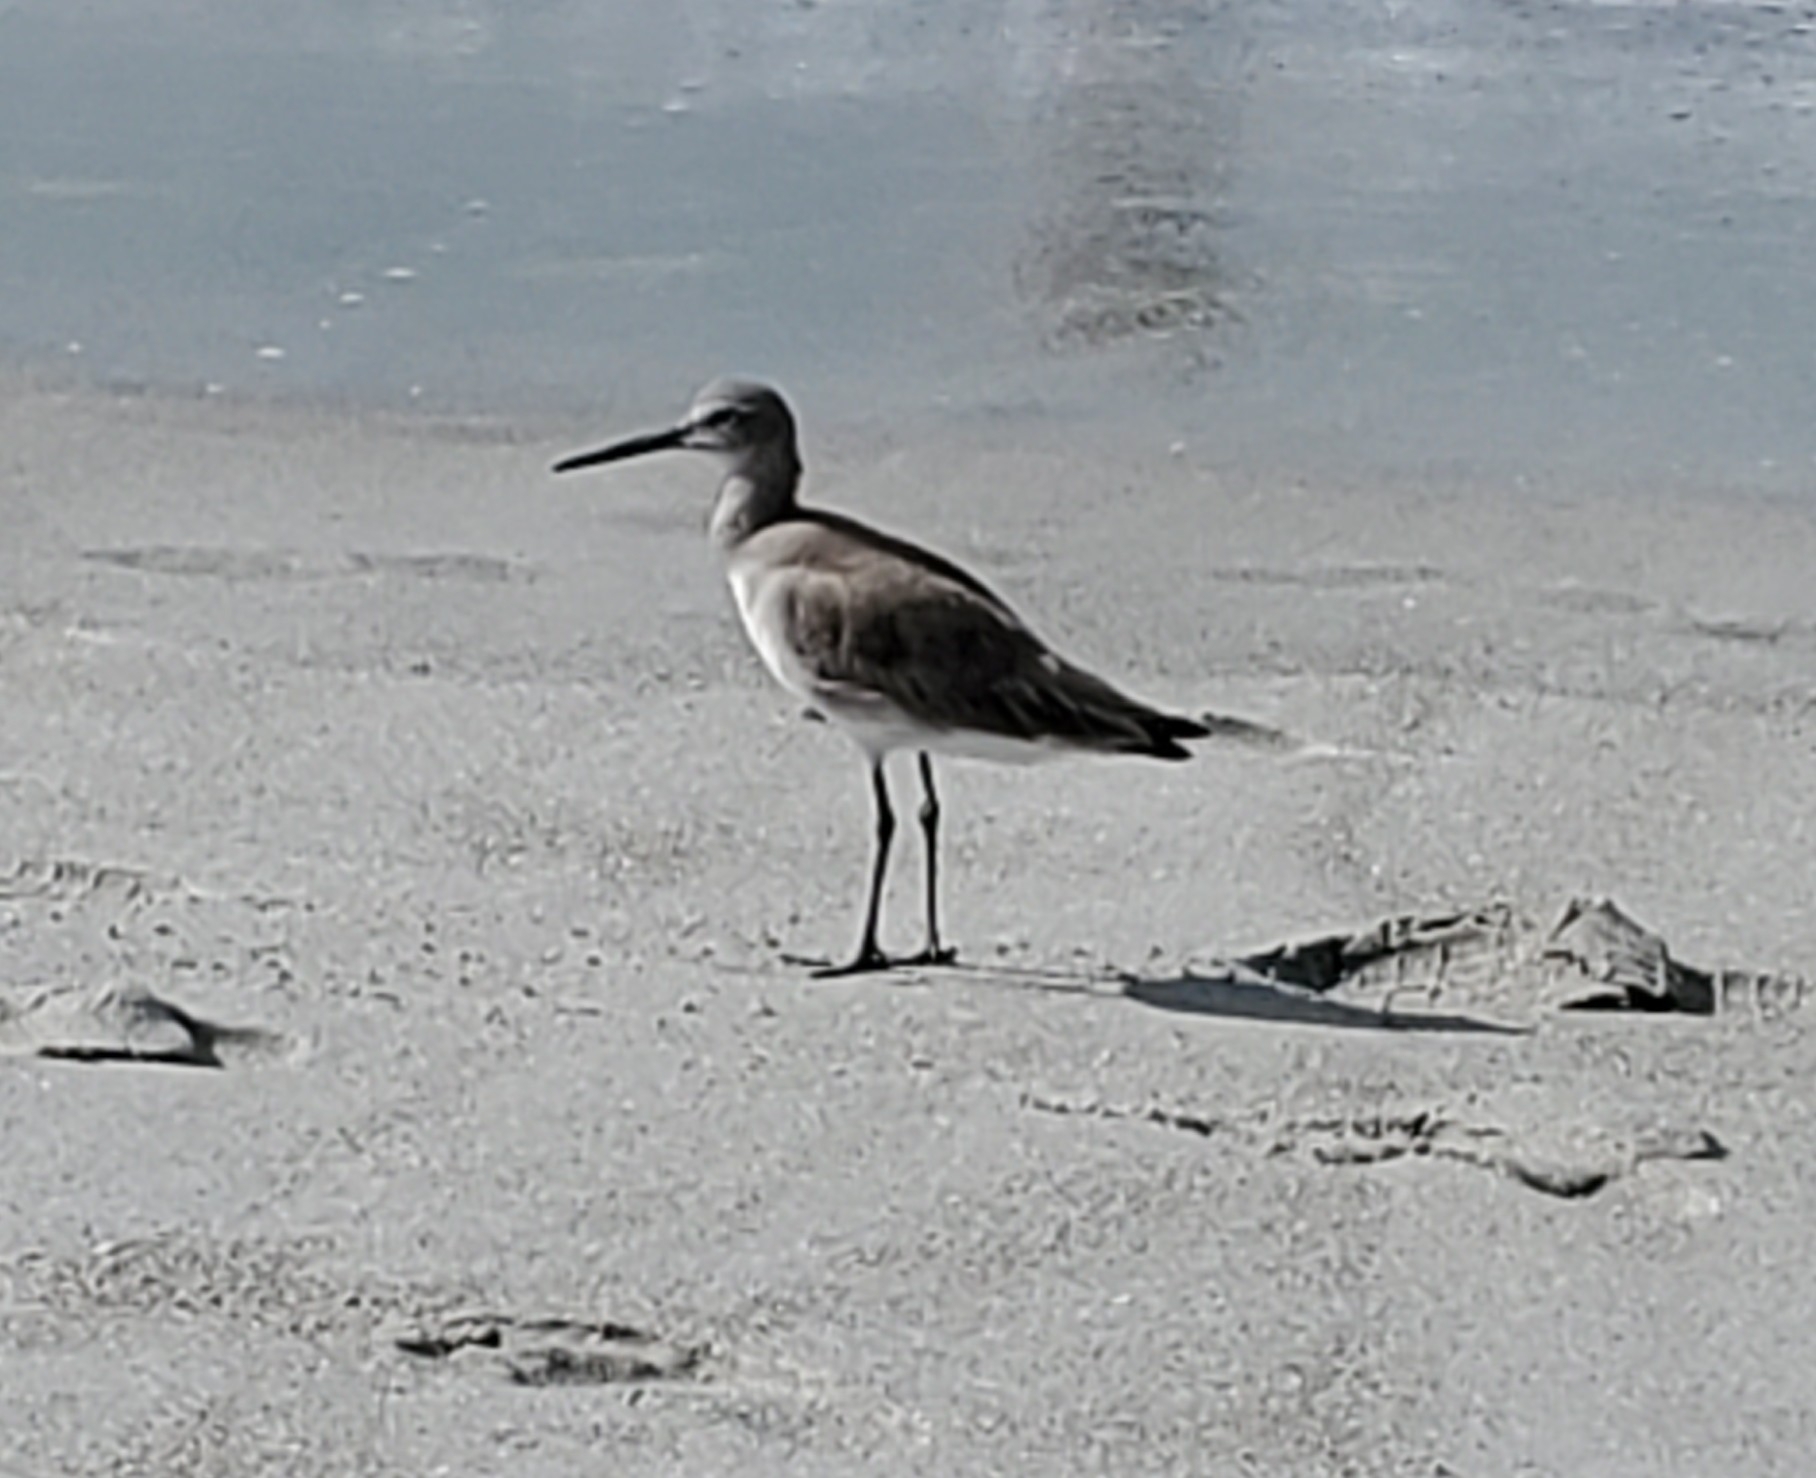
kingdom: Animalia
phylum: Chordata
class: Aves
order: Charadriiformes
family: Scolopacidae
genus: Tringa
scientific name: Tringa semipalmata
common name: Willet
